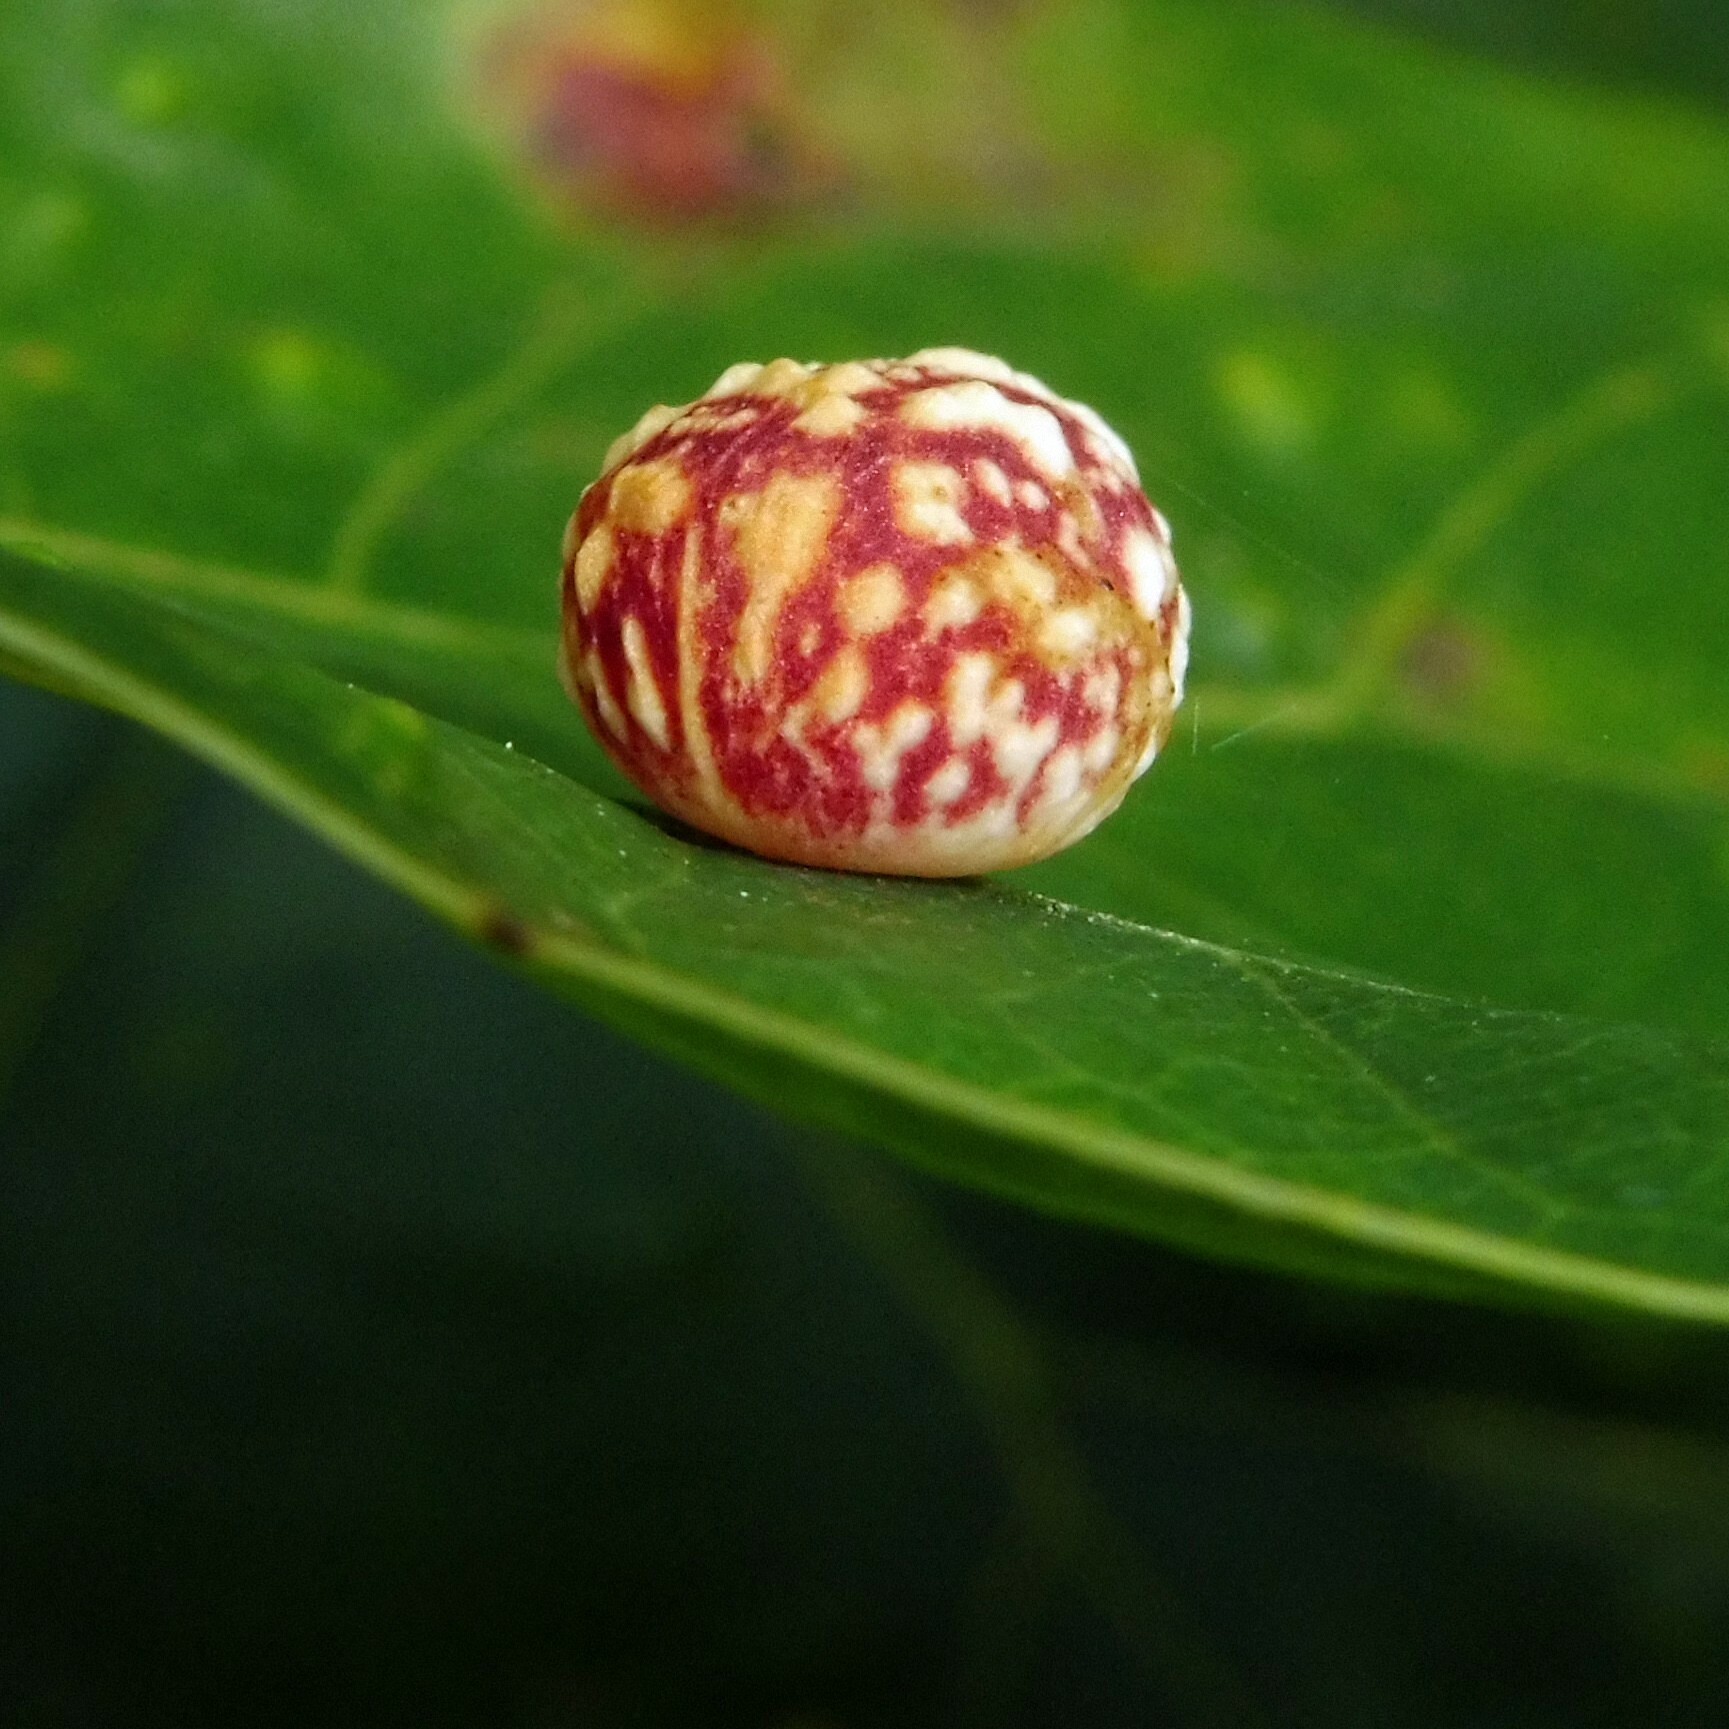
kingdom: Animalia
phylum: Arthropoda
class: Insecta
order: Hymenoptera
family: Cynipidae
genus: Cynips
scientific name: Cynips longiventris
